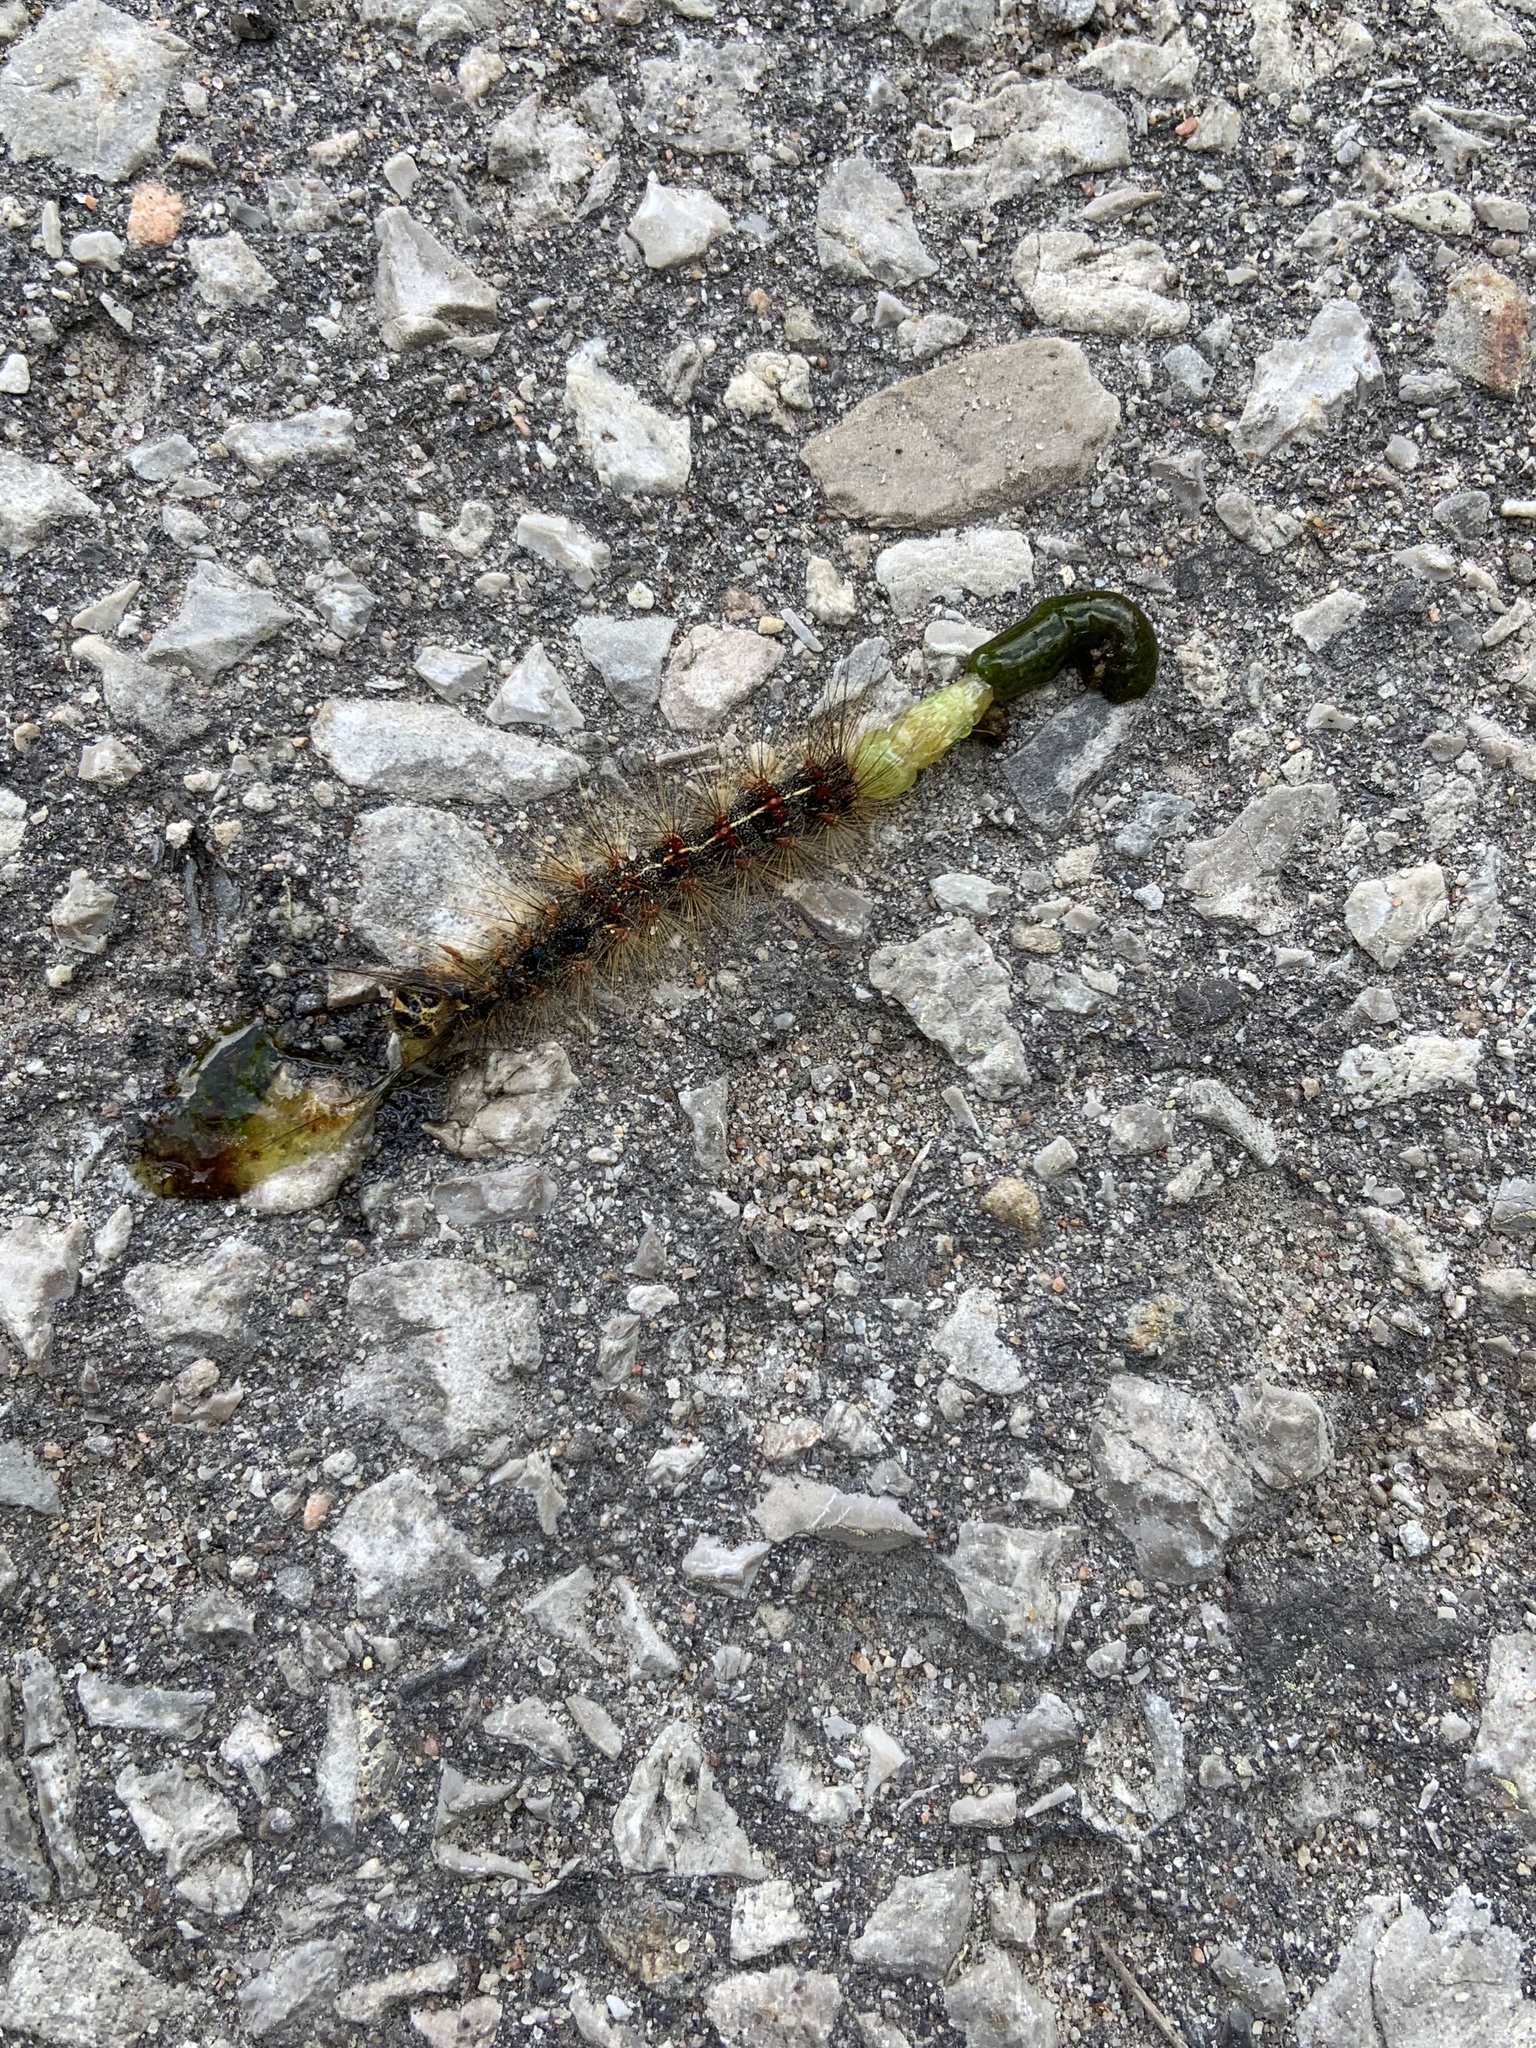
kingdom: Animalia
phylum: Arthropoda
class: Insecta
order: Lepidoptera
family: Erebidae
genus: Lymantria
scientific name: Lymantria dispar
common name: Gypsy moth
